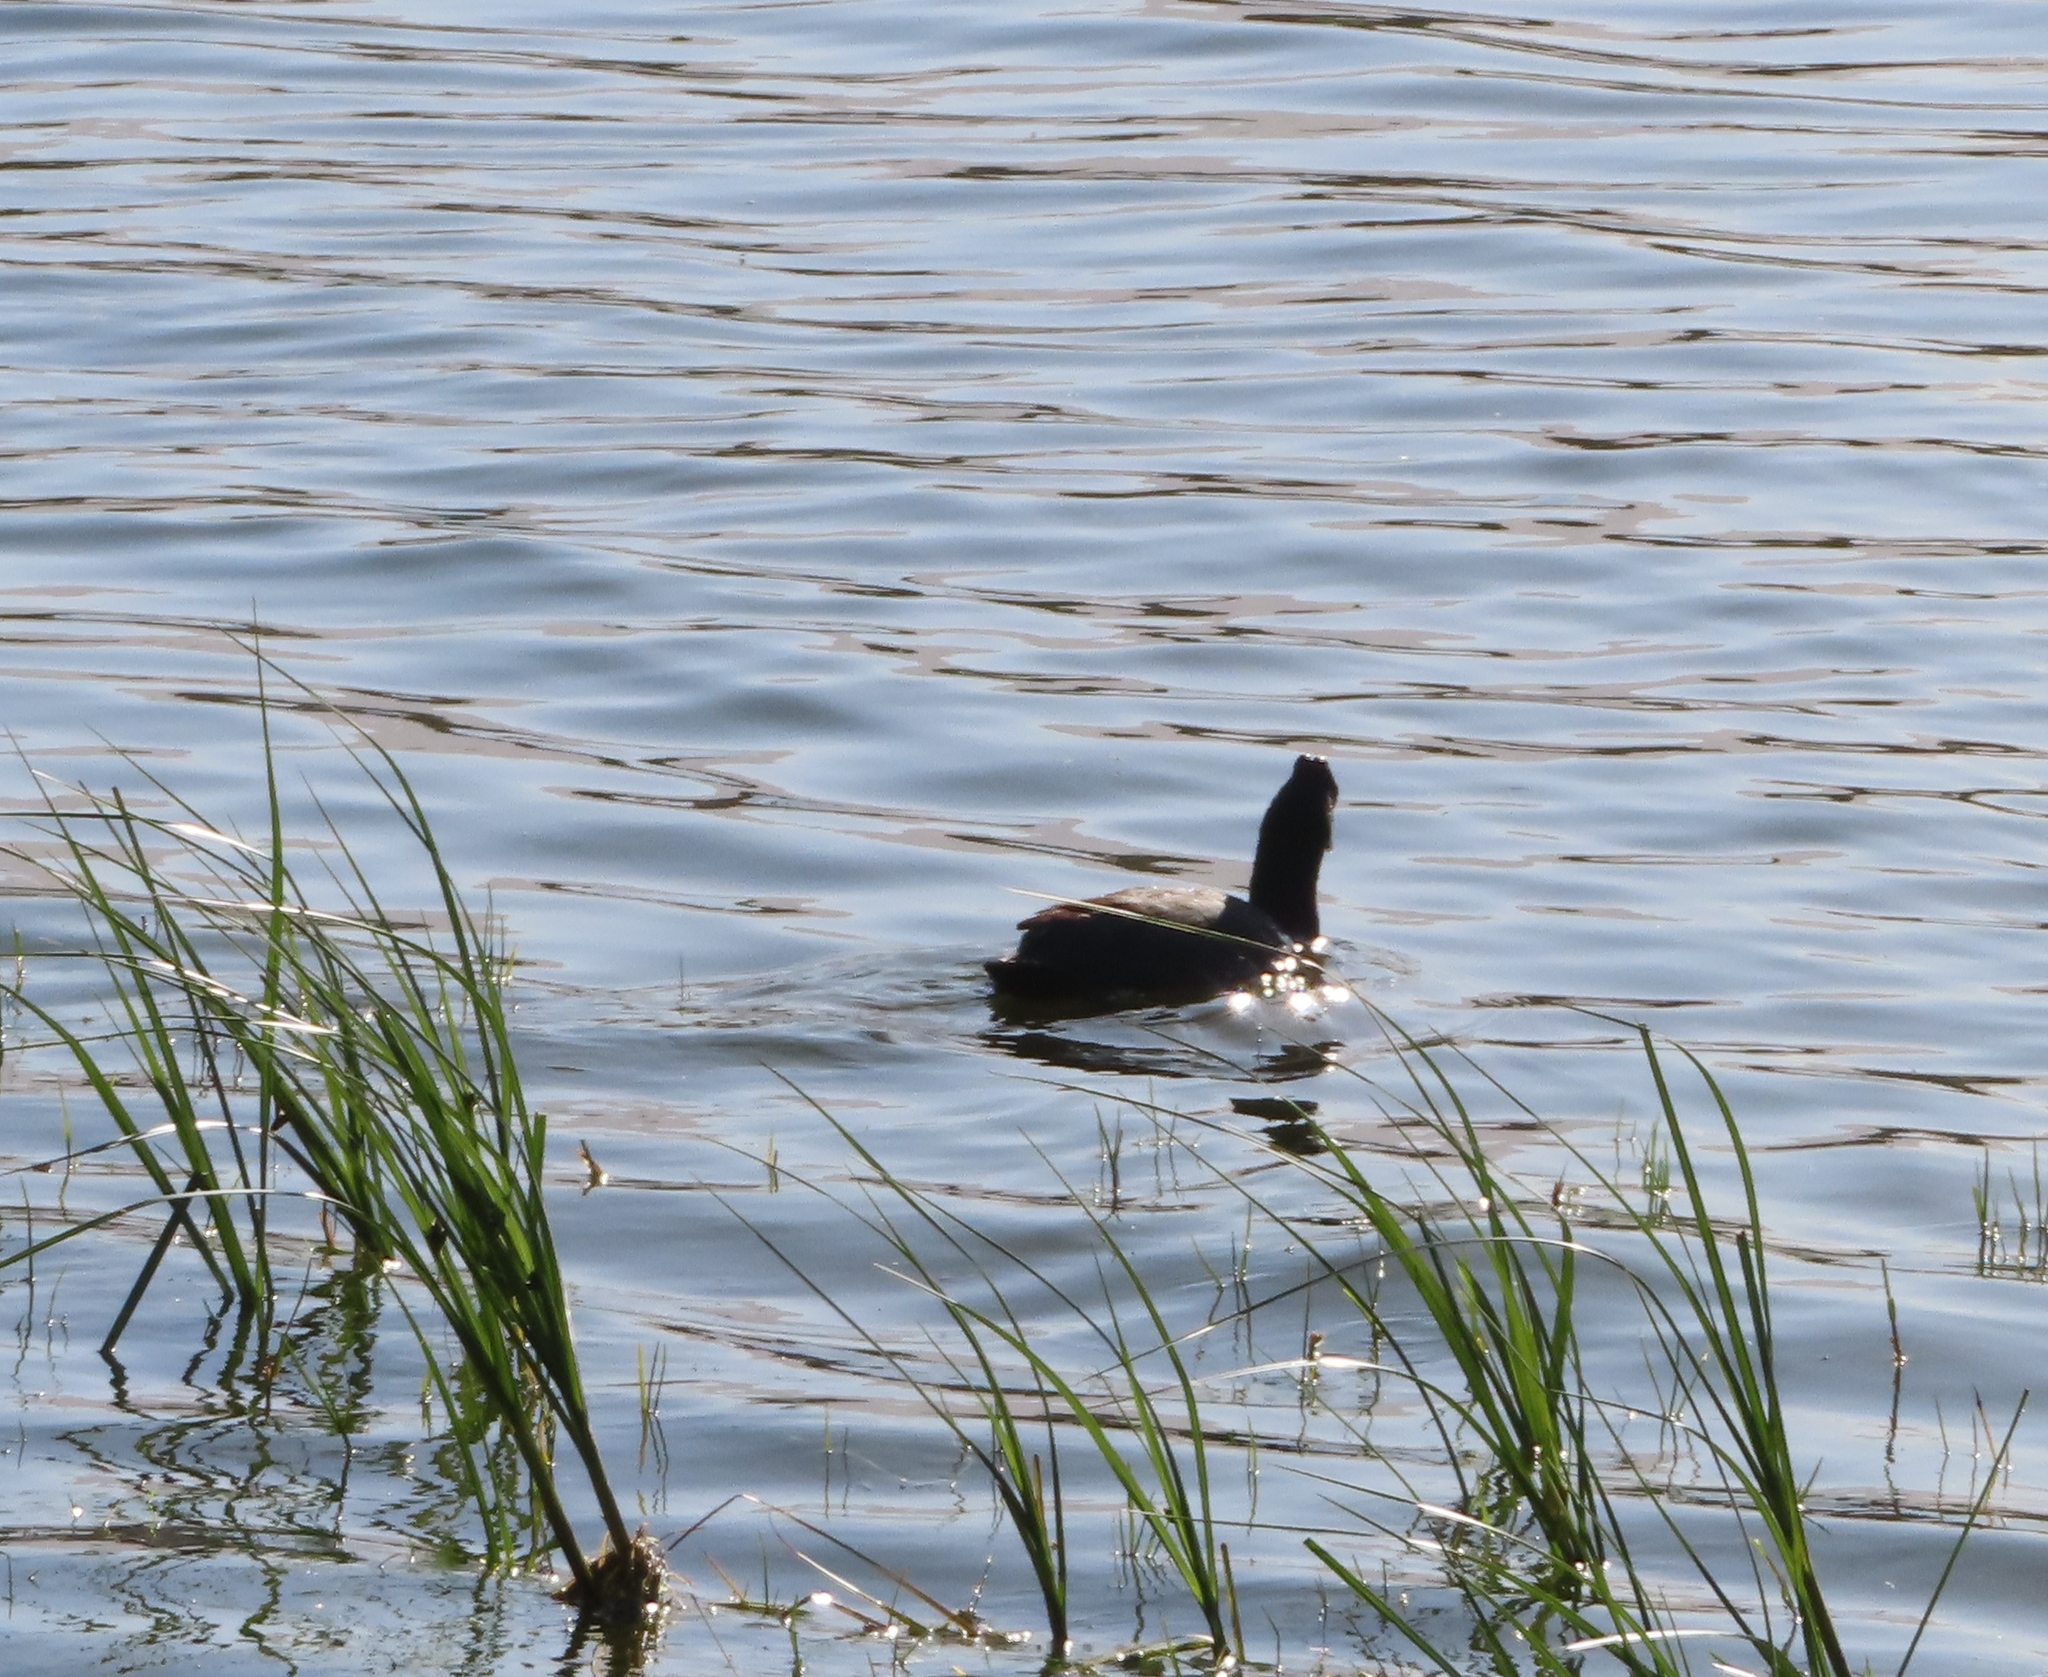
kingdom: Animalia
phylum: Chordata
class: Aves
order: Gruiformes
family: Rallidae
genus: Fulica
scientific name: Fulica cristata
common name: Red-knobbed coot
